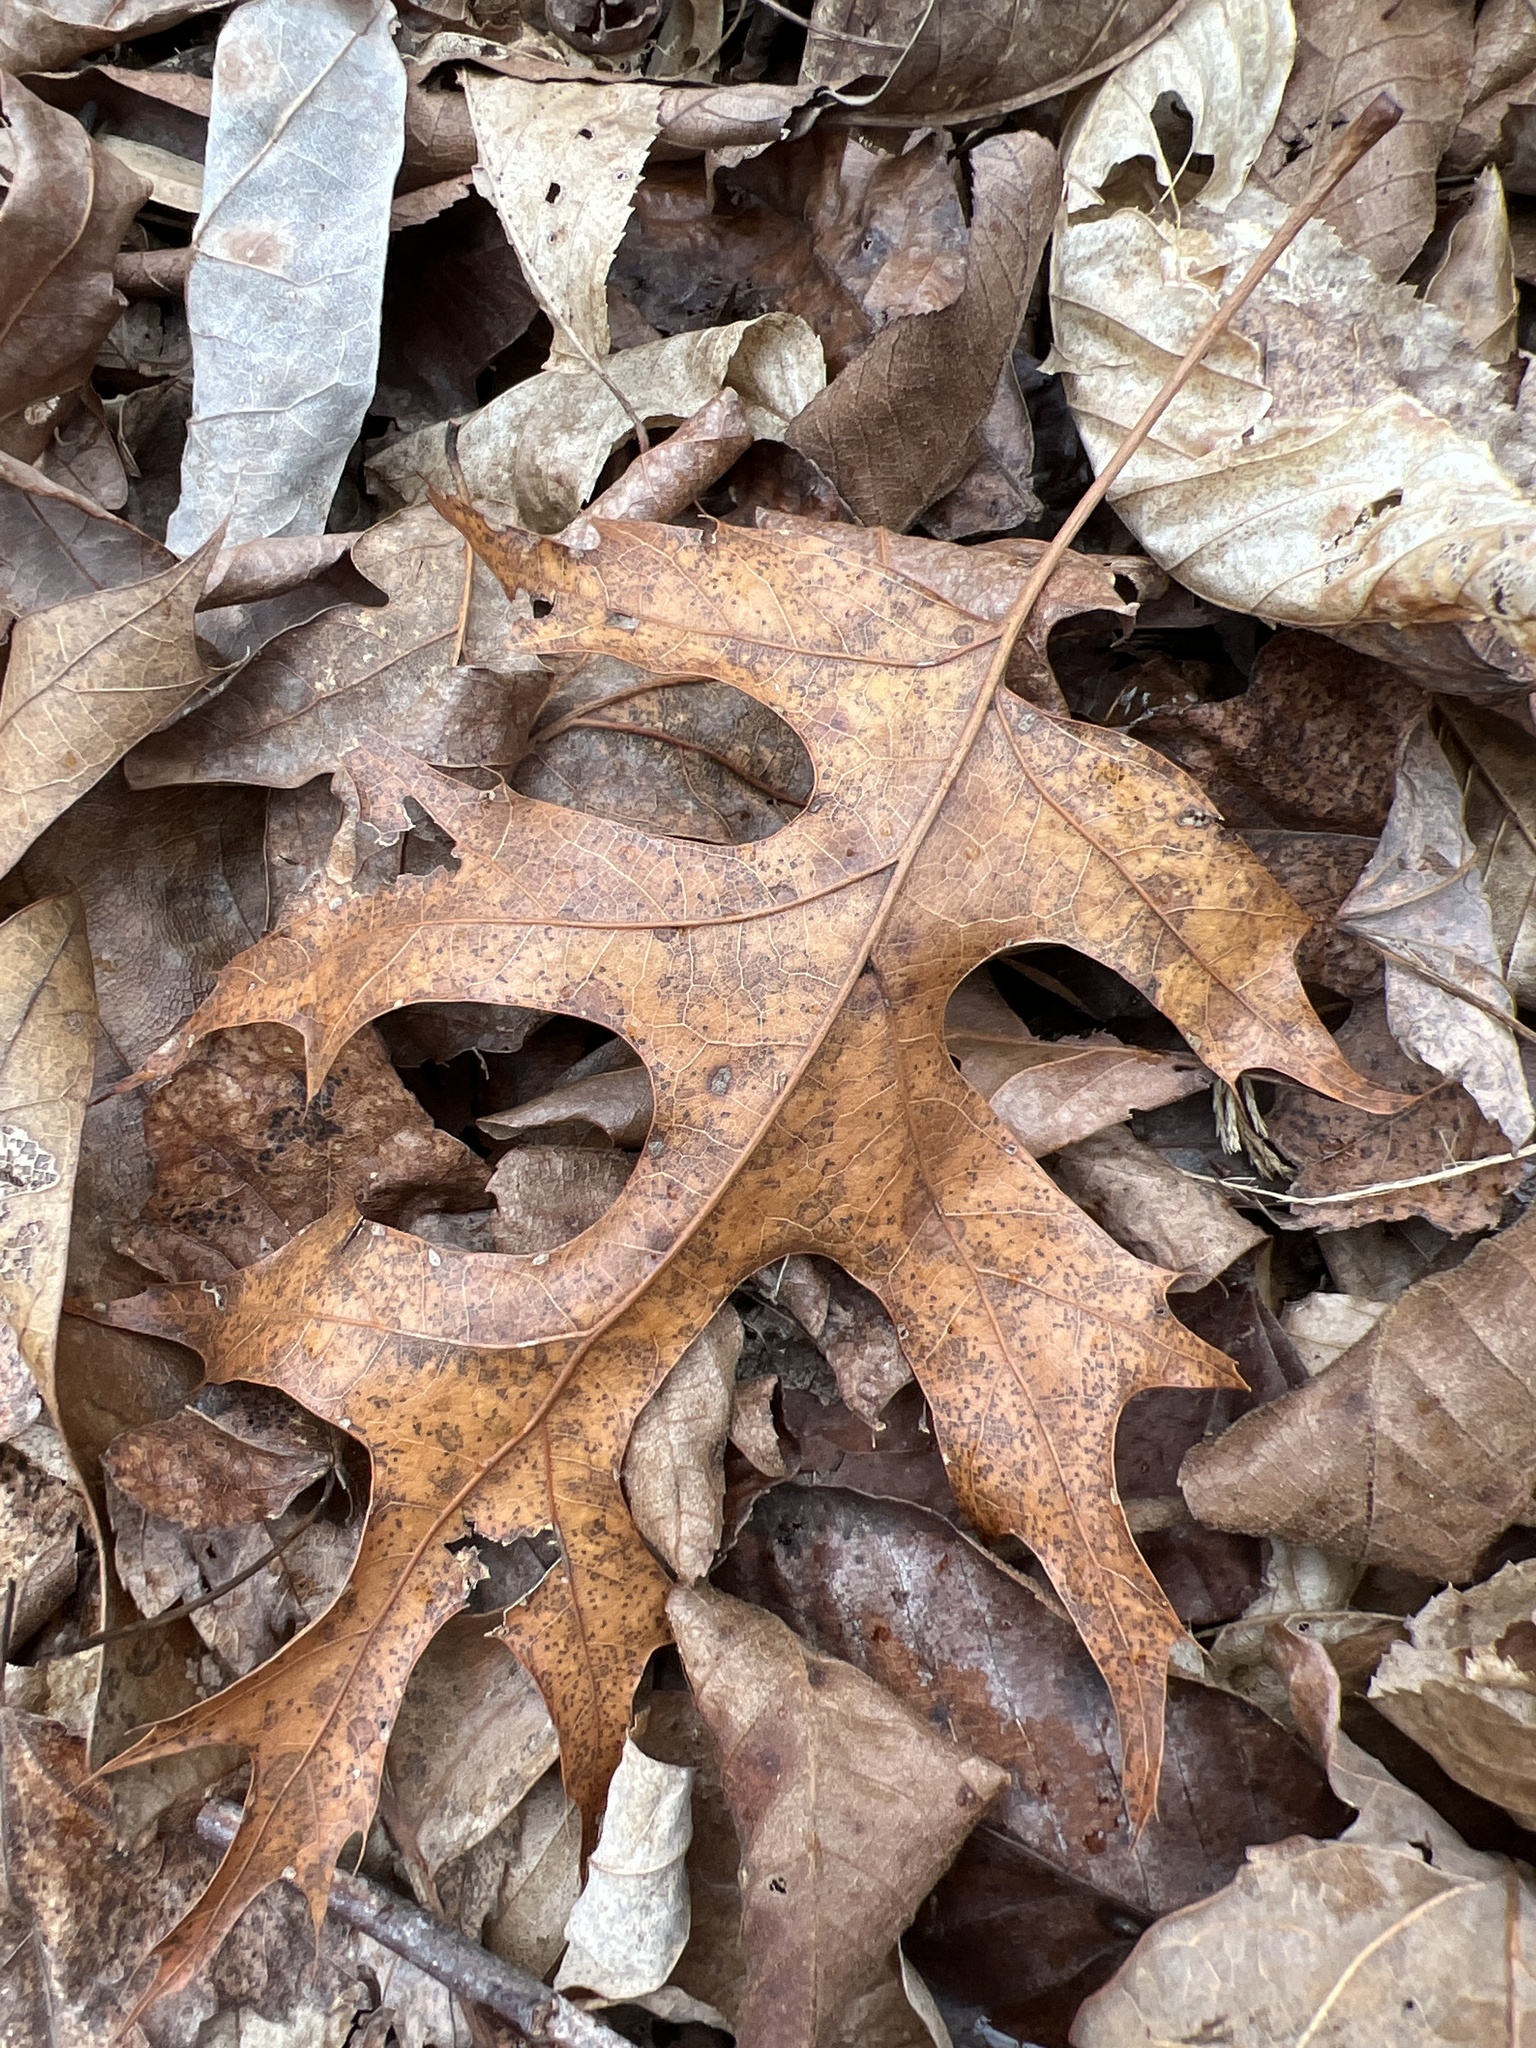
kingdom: Plantae
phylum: Tracheophyta
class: Magnoliopsida
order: Fagales
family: Fagaceae
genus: Quercus
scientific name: Quercus coccinea
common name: Scarlet oak
